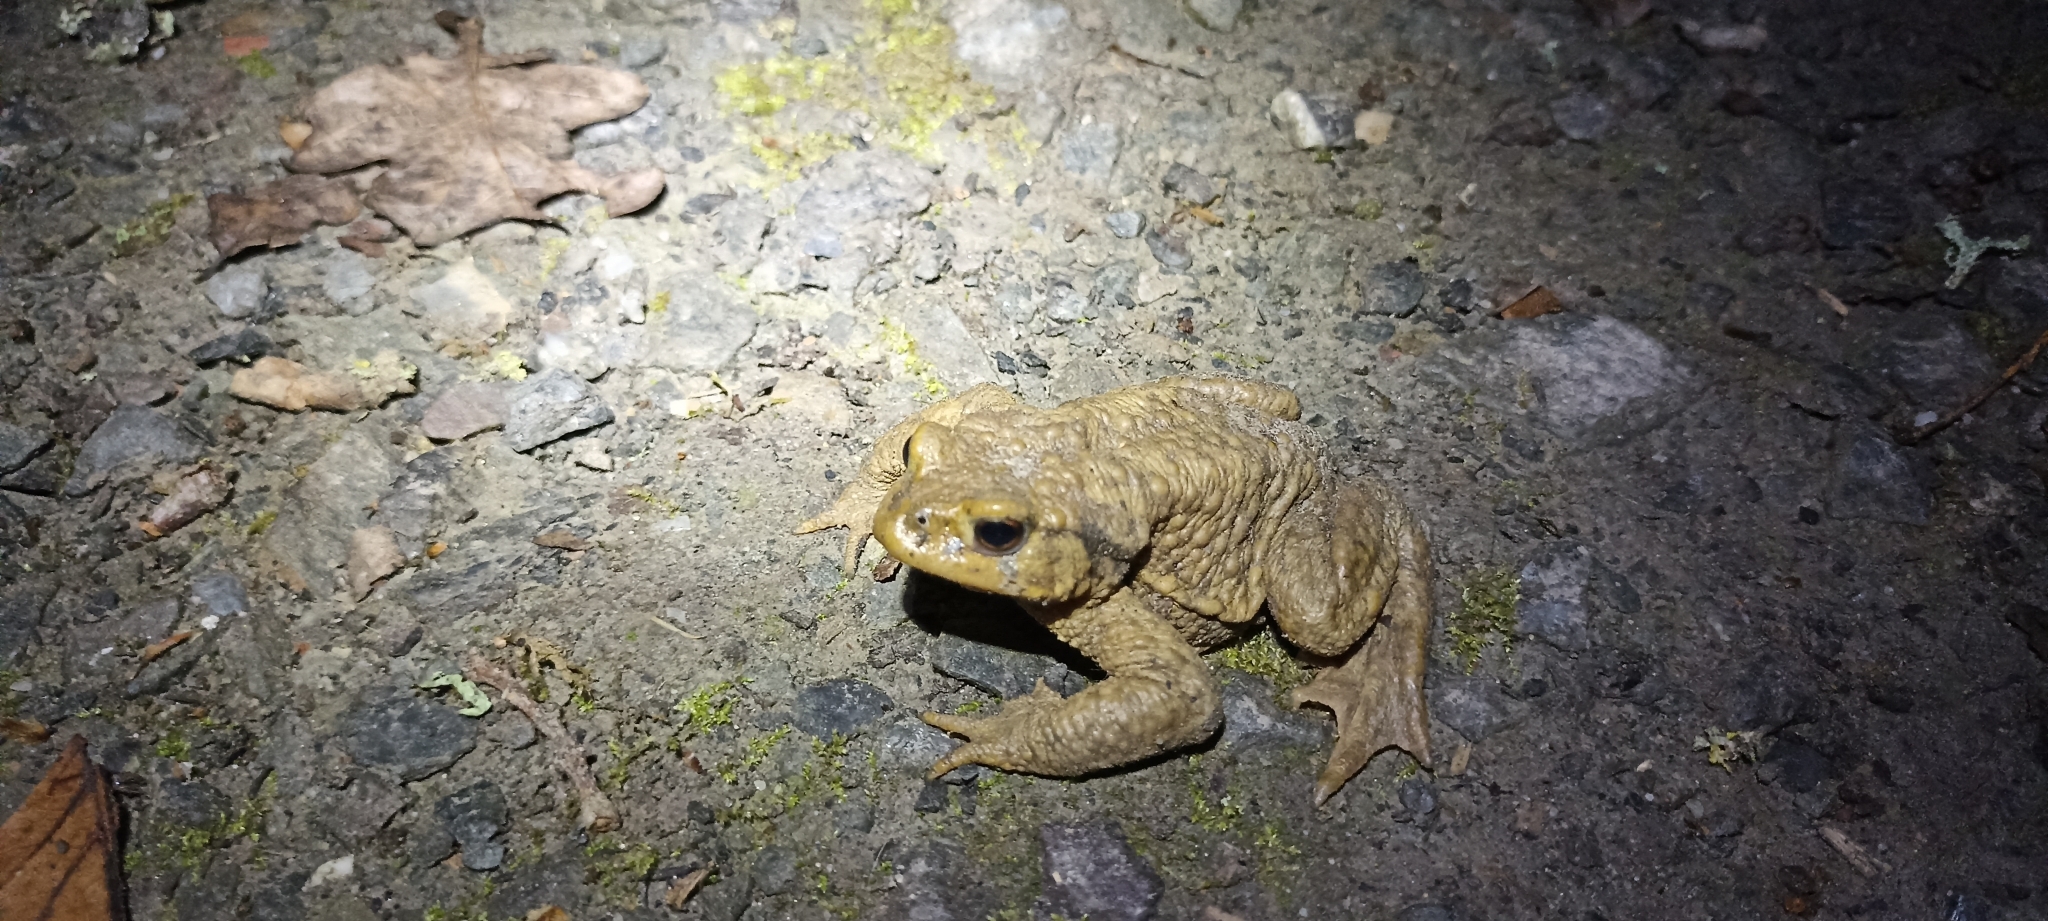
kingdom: Animalia
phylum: Chordata
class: Amphibia
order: Anura
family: Bufonidae
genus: Bufo
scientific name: Bufo spinosus
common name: Western common toad
